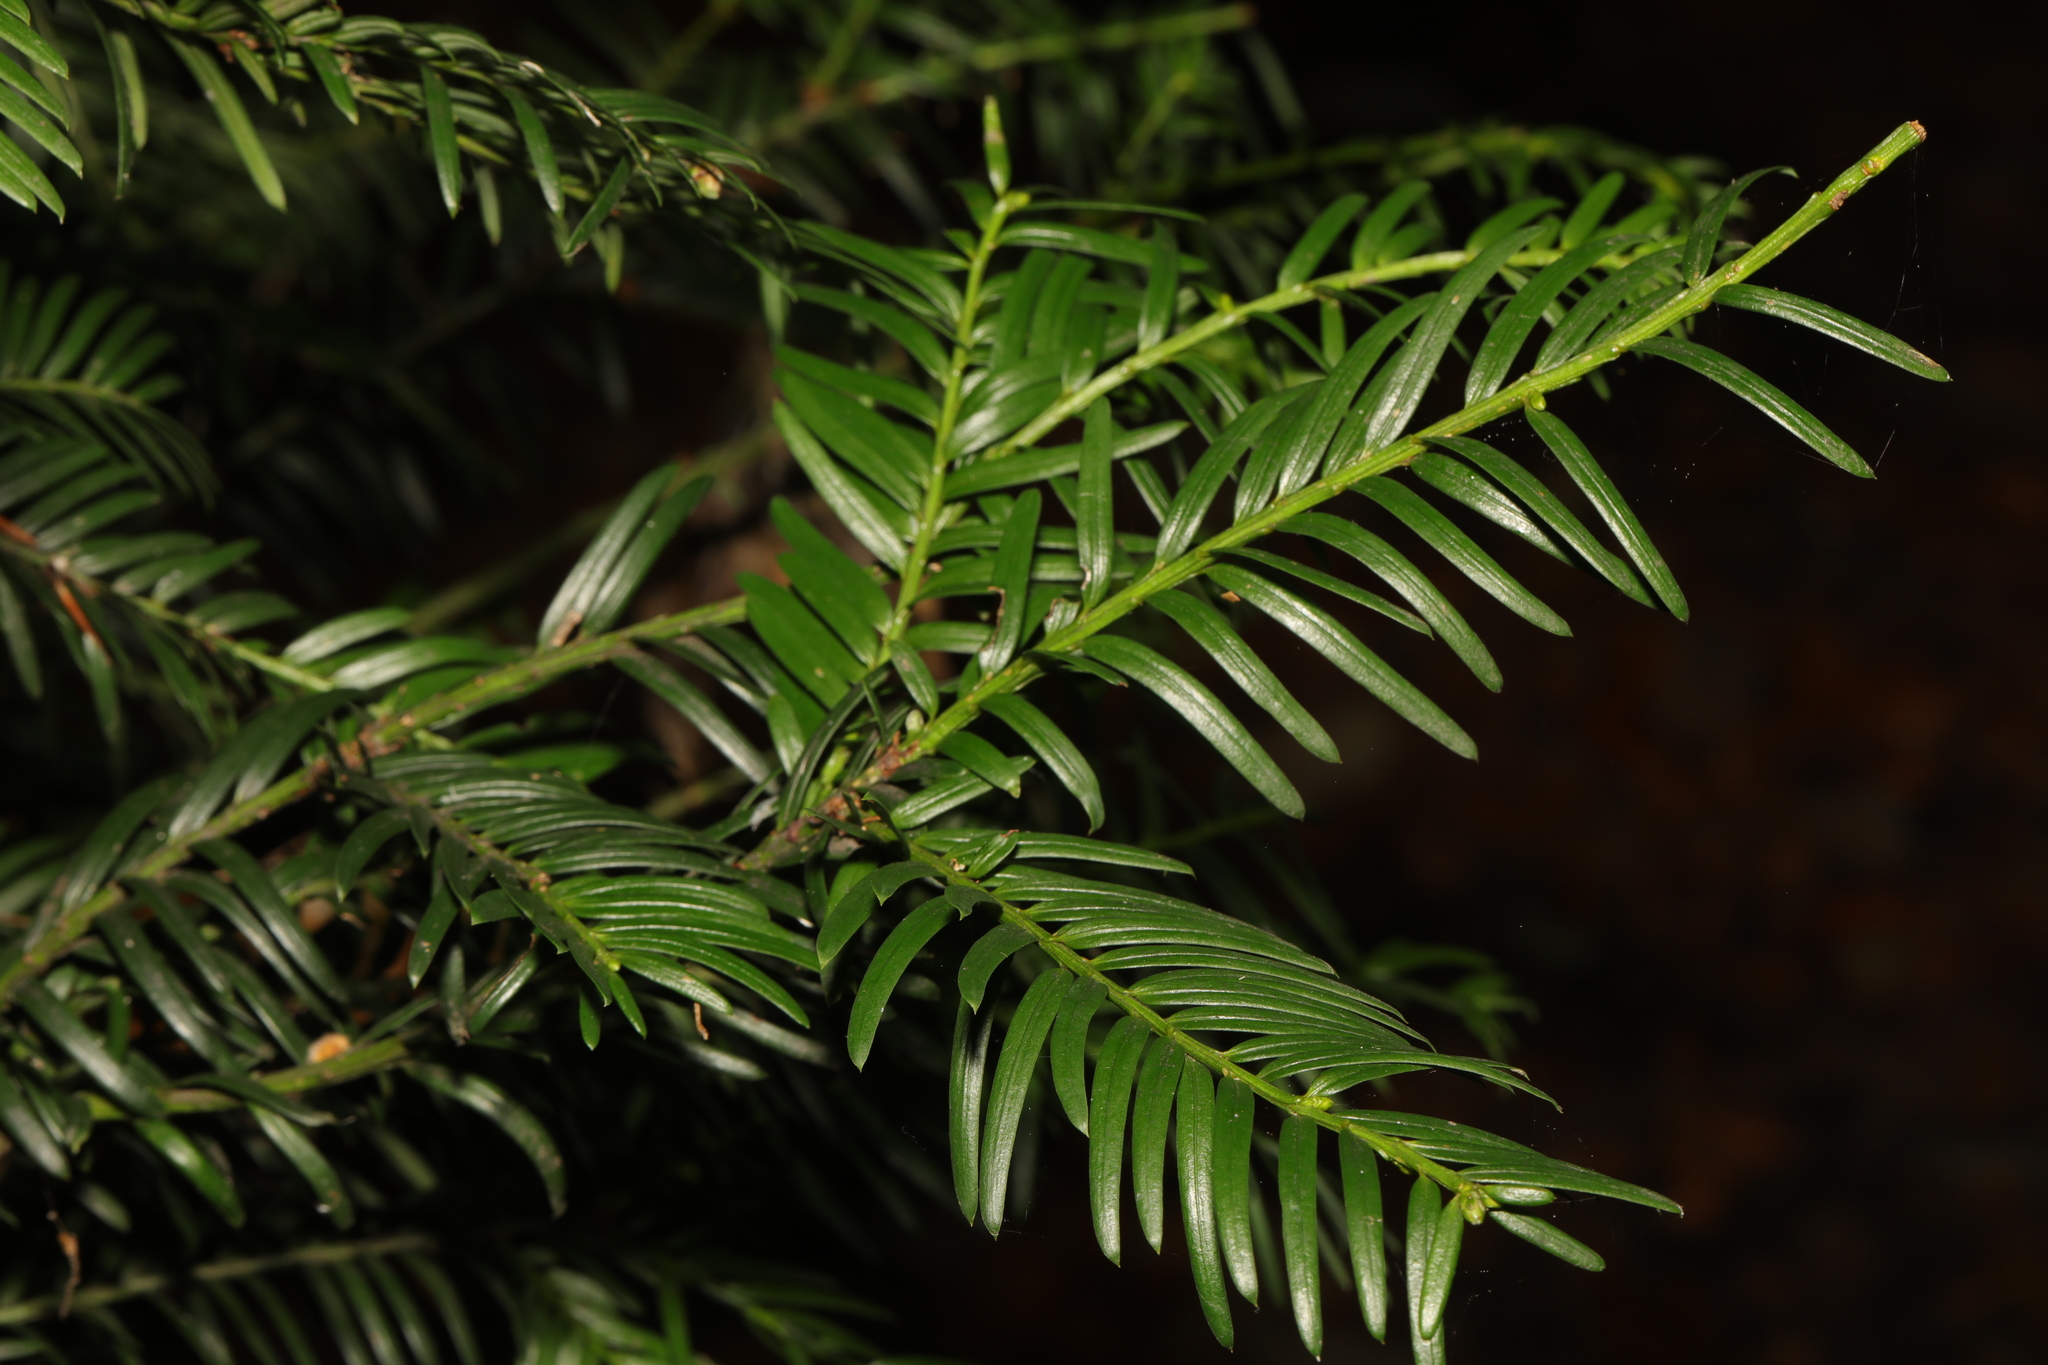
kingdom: Plantae
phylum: Tracheophyta
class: Pinopsida
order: Pinales
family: Taxaceae
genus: Taxus
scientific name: Taxus baccata
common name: Yew
